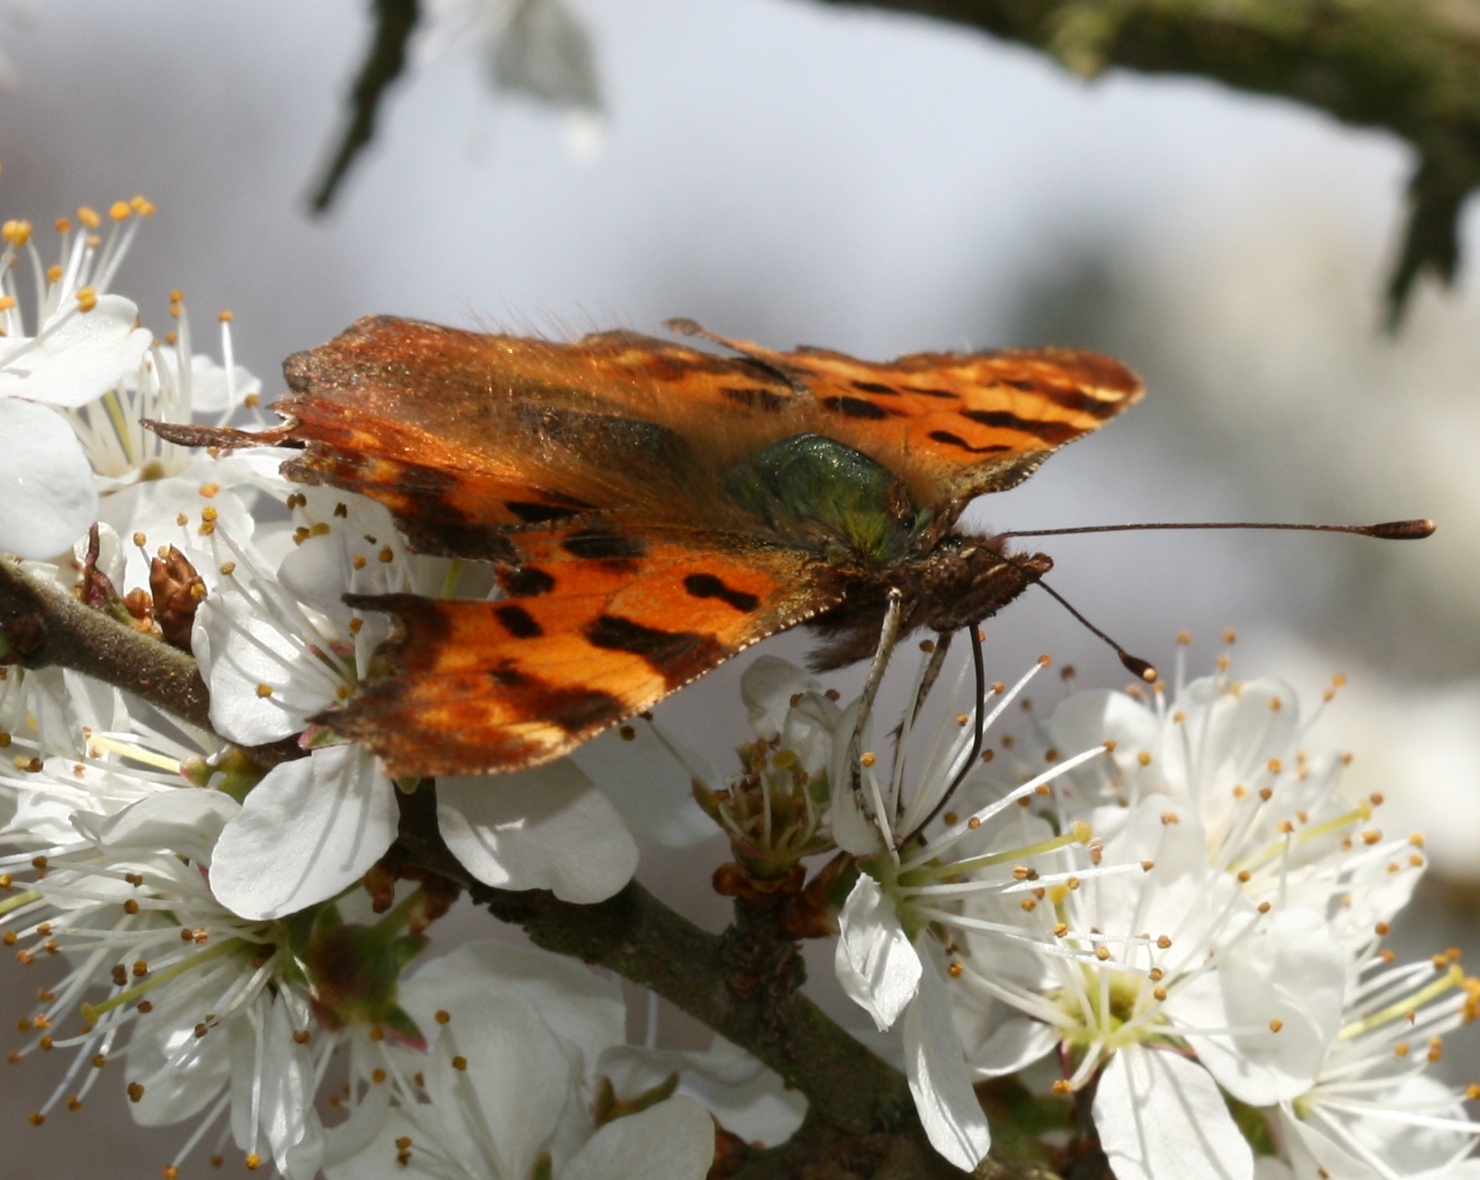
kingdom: Animalia
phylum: Arthropoda
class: Insecta
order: Lepidoptera
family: Nymphalidae
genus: Polygonia
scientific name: Polygonia c-album
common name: Comma
